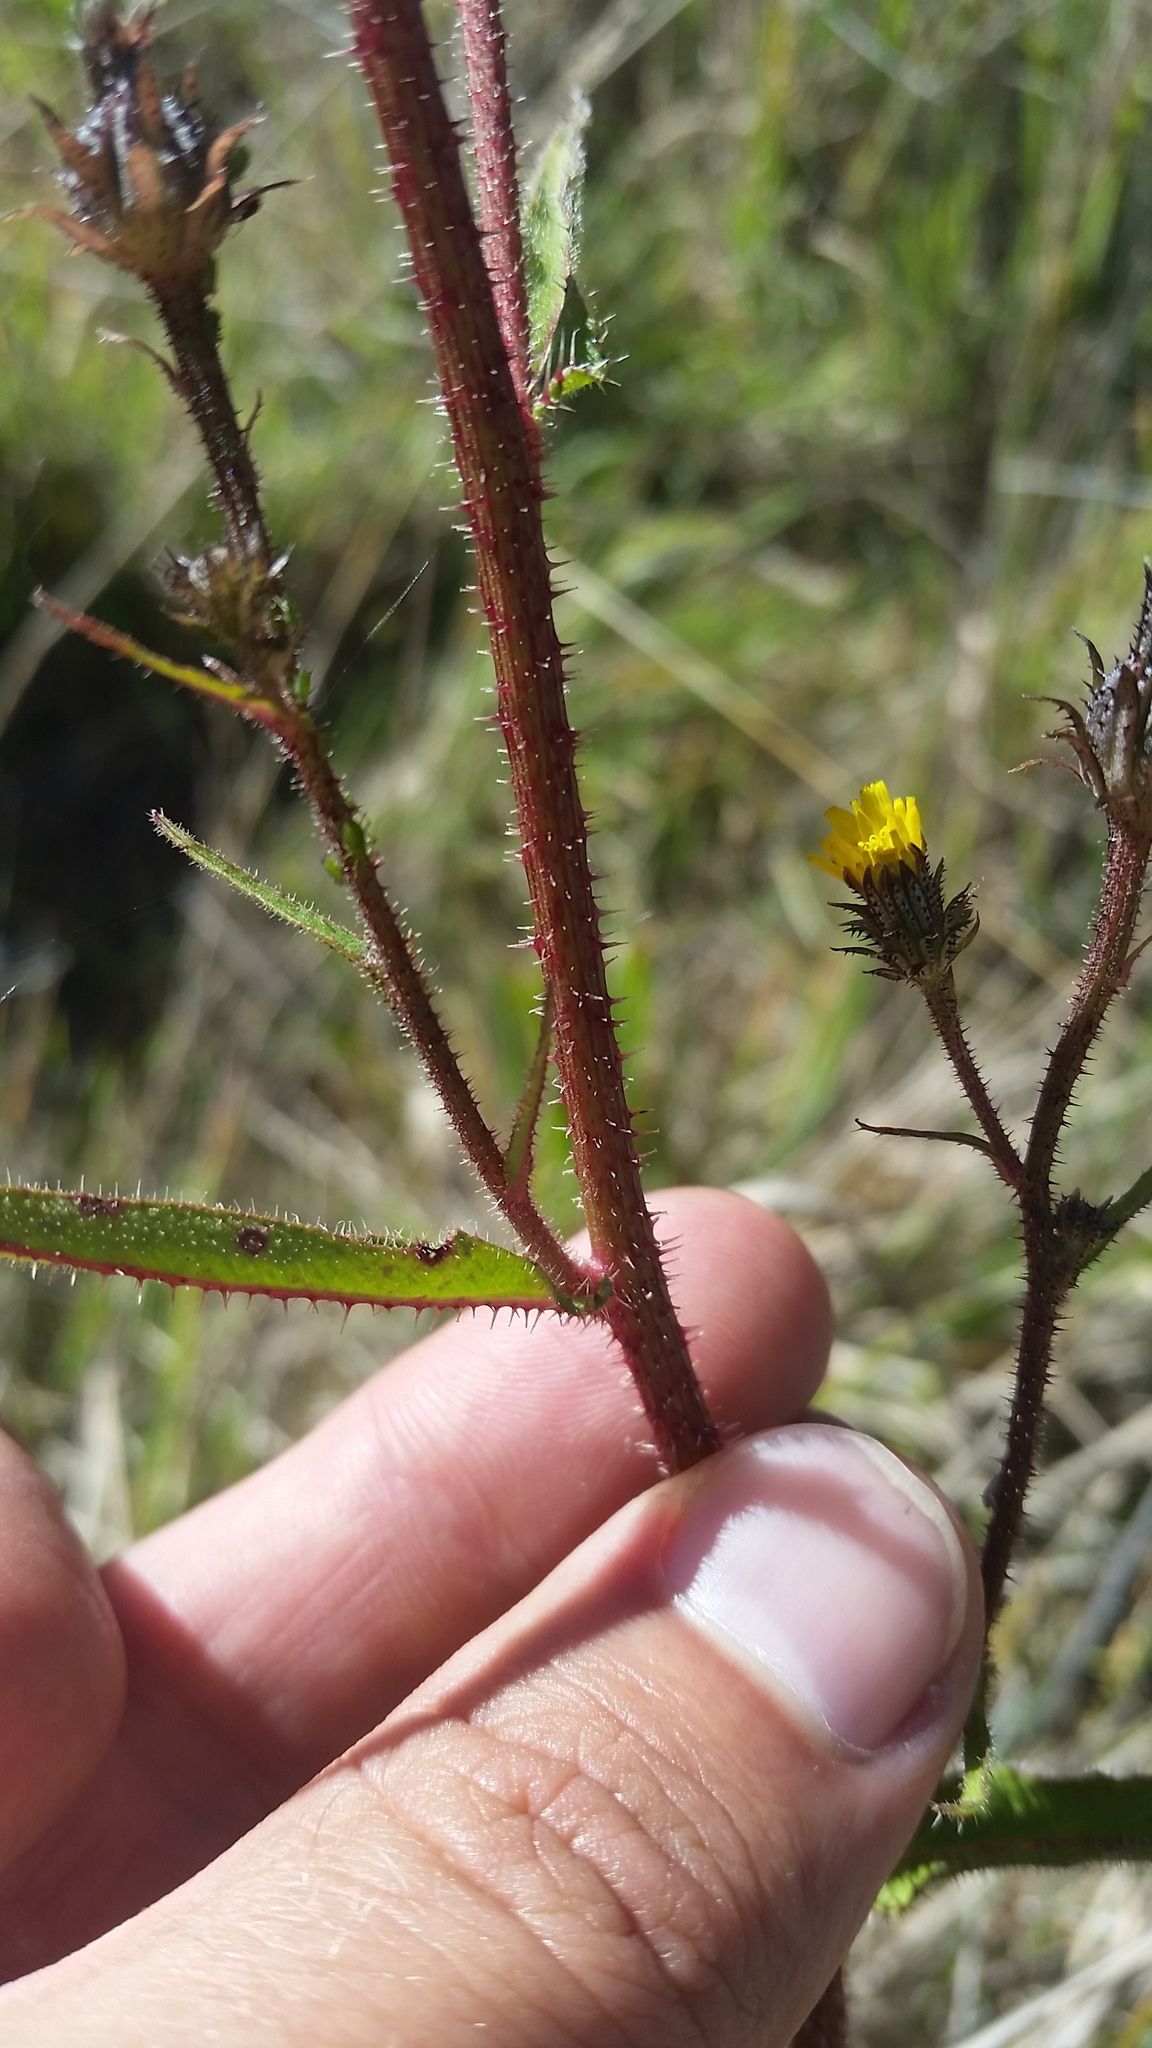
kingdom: Plantae
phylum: Tracheophyta
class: Magnoliopsida
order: Asterales
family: Asteraceae
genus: Picris
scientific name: Picris hieracioides
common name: Hawkweed oxtongue
